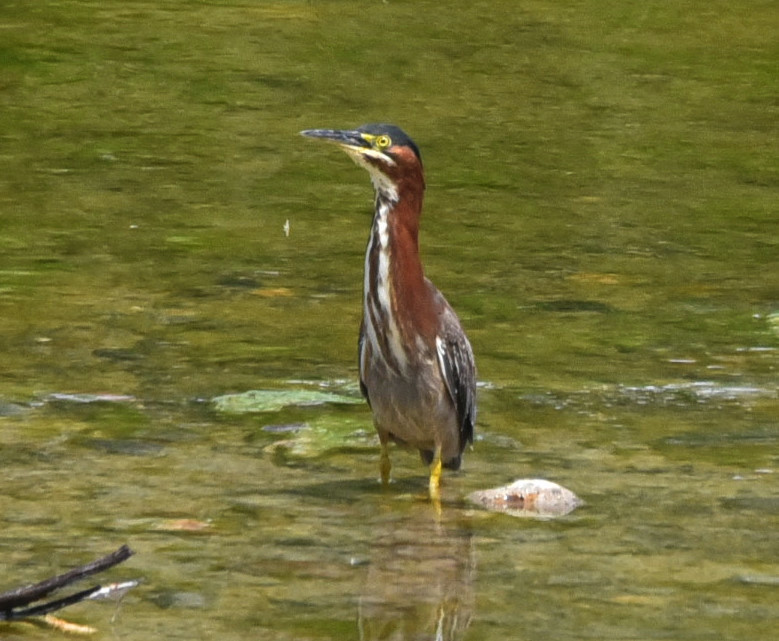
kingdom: Animalia
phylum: Chordata
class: Aves
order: Pelecaniformes
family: Ardeidae
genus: Butorides
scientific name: Butorides virescens
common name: Green heron
